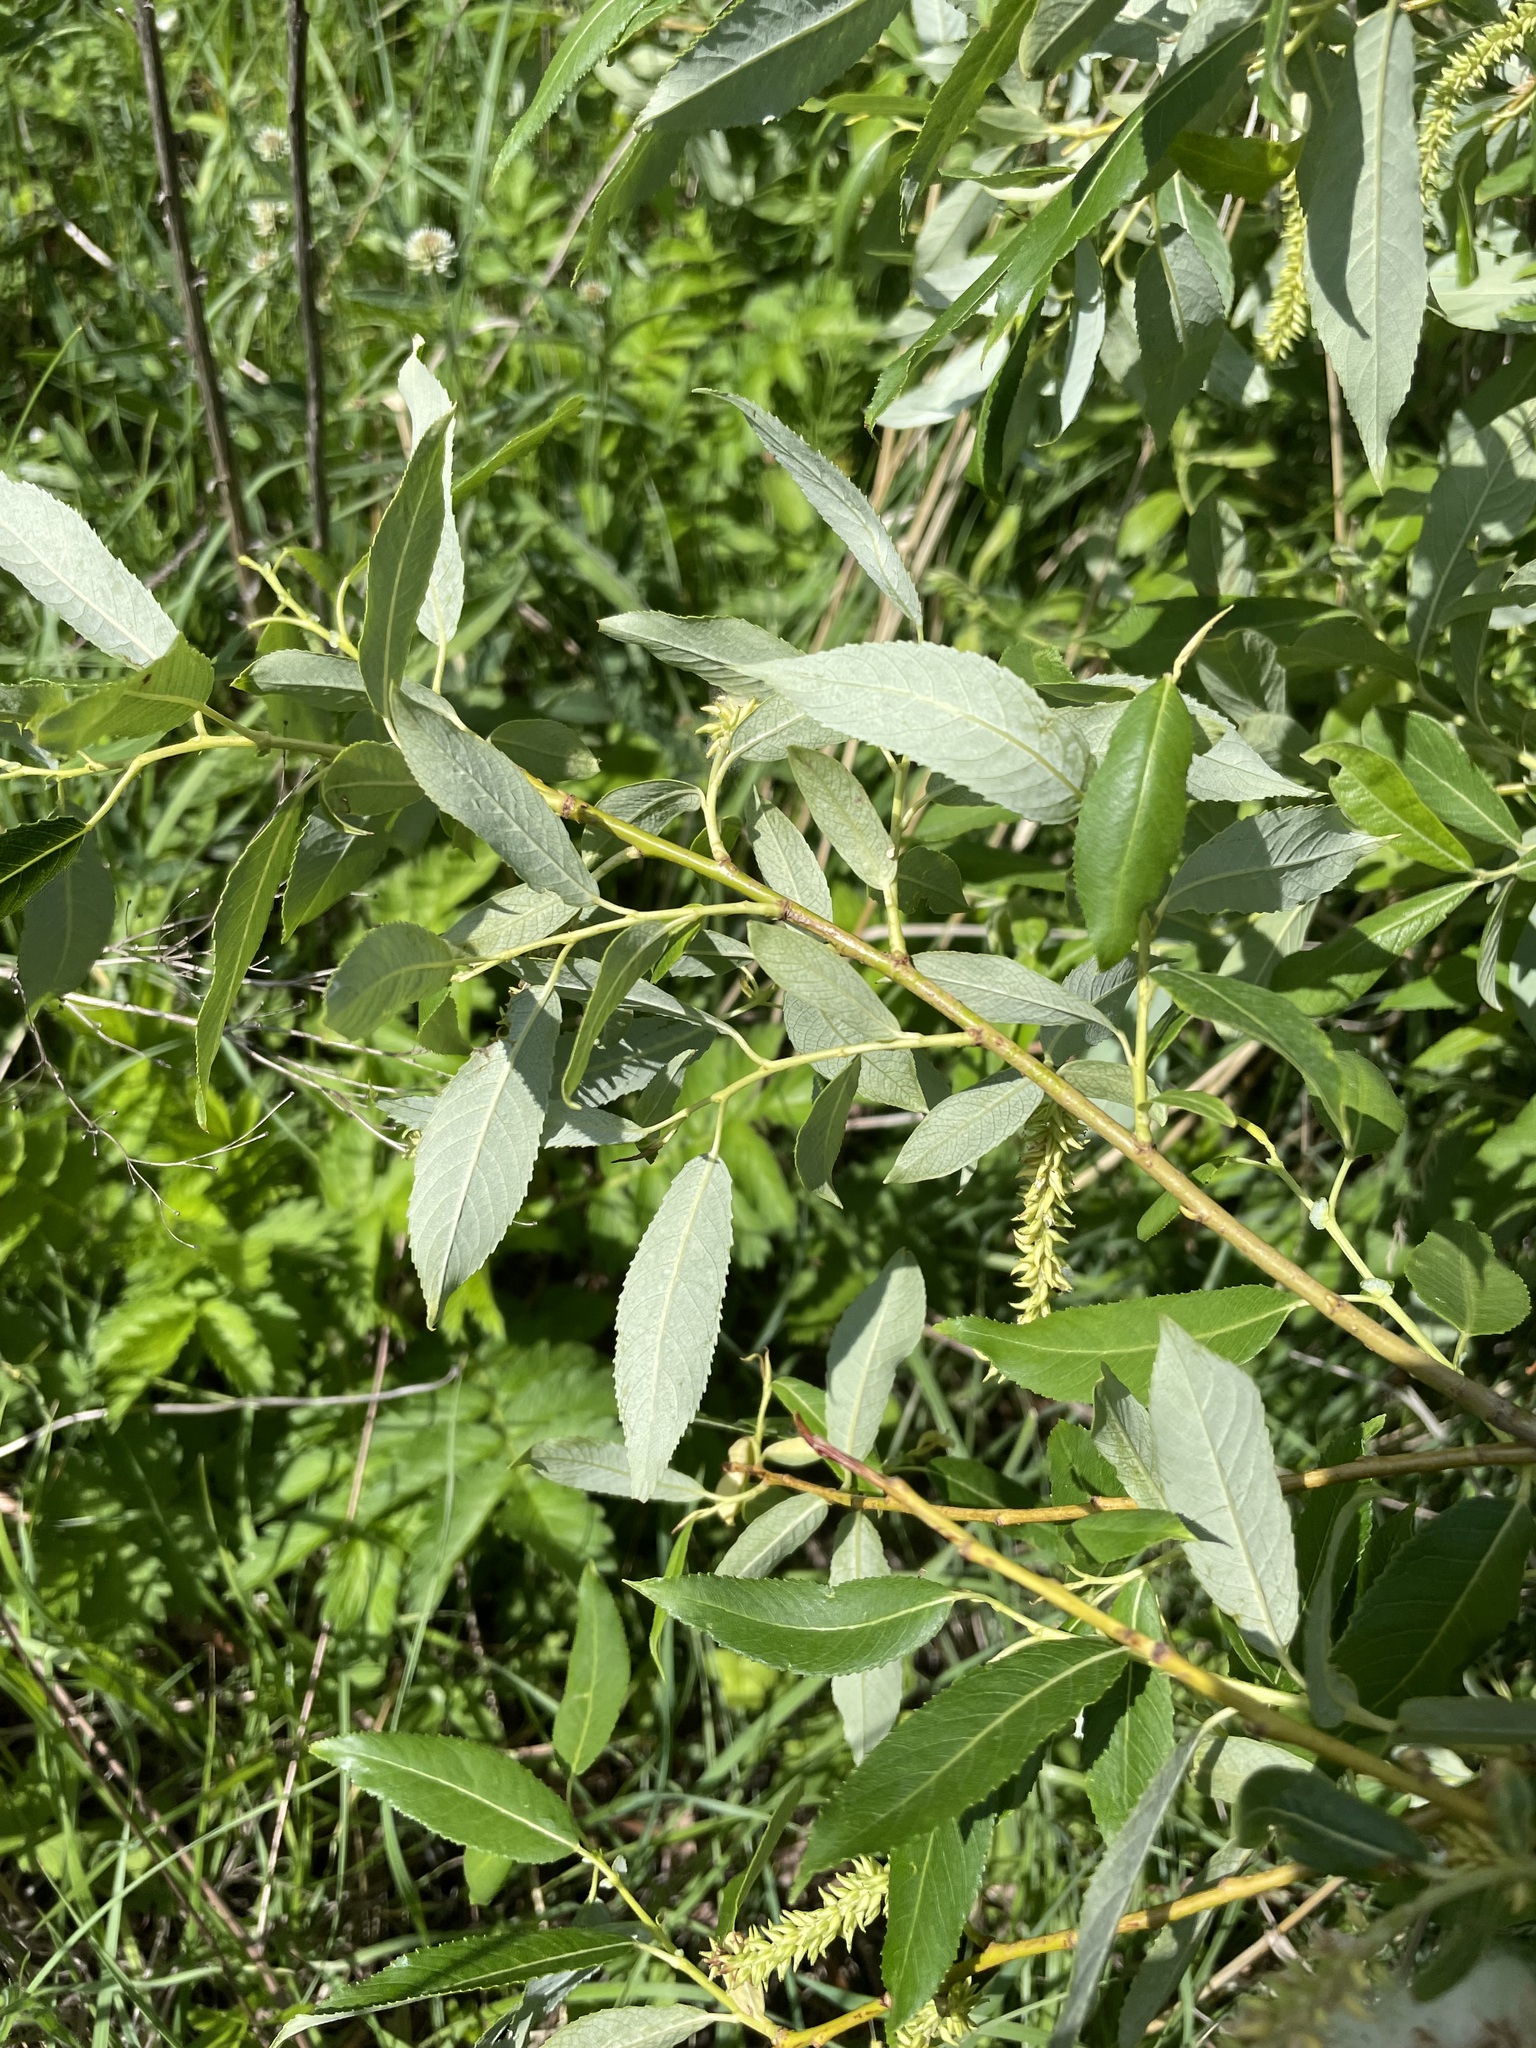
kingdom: Plantae
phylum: Tracheophyta
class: Magnoliopsida
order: Malpighiales
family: Salicaceae
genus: Salix
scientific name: Salix triandra
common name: Almond willow
